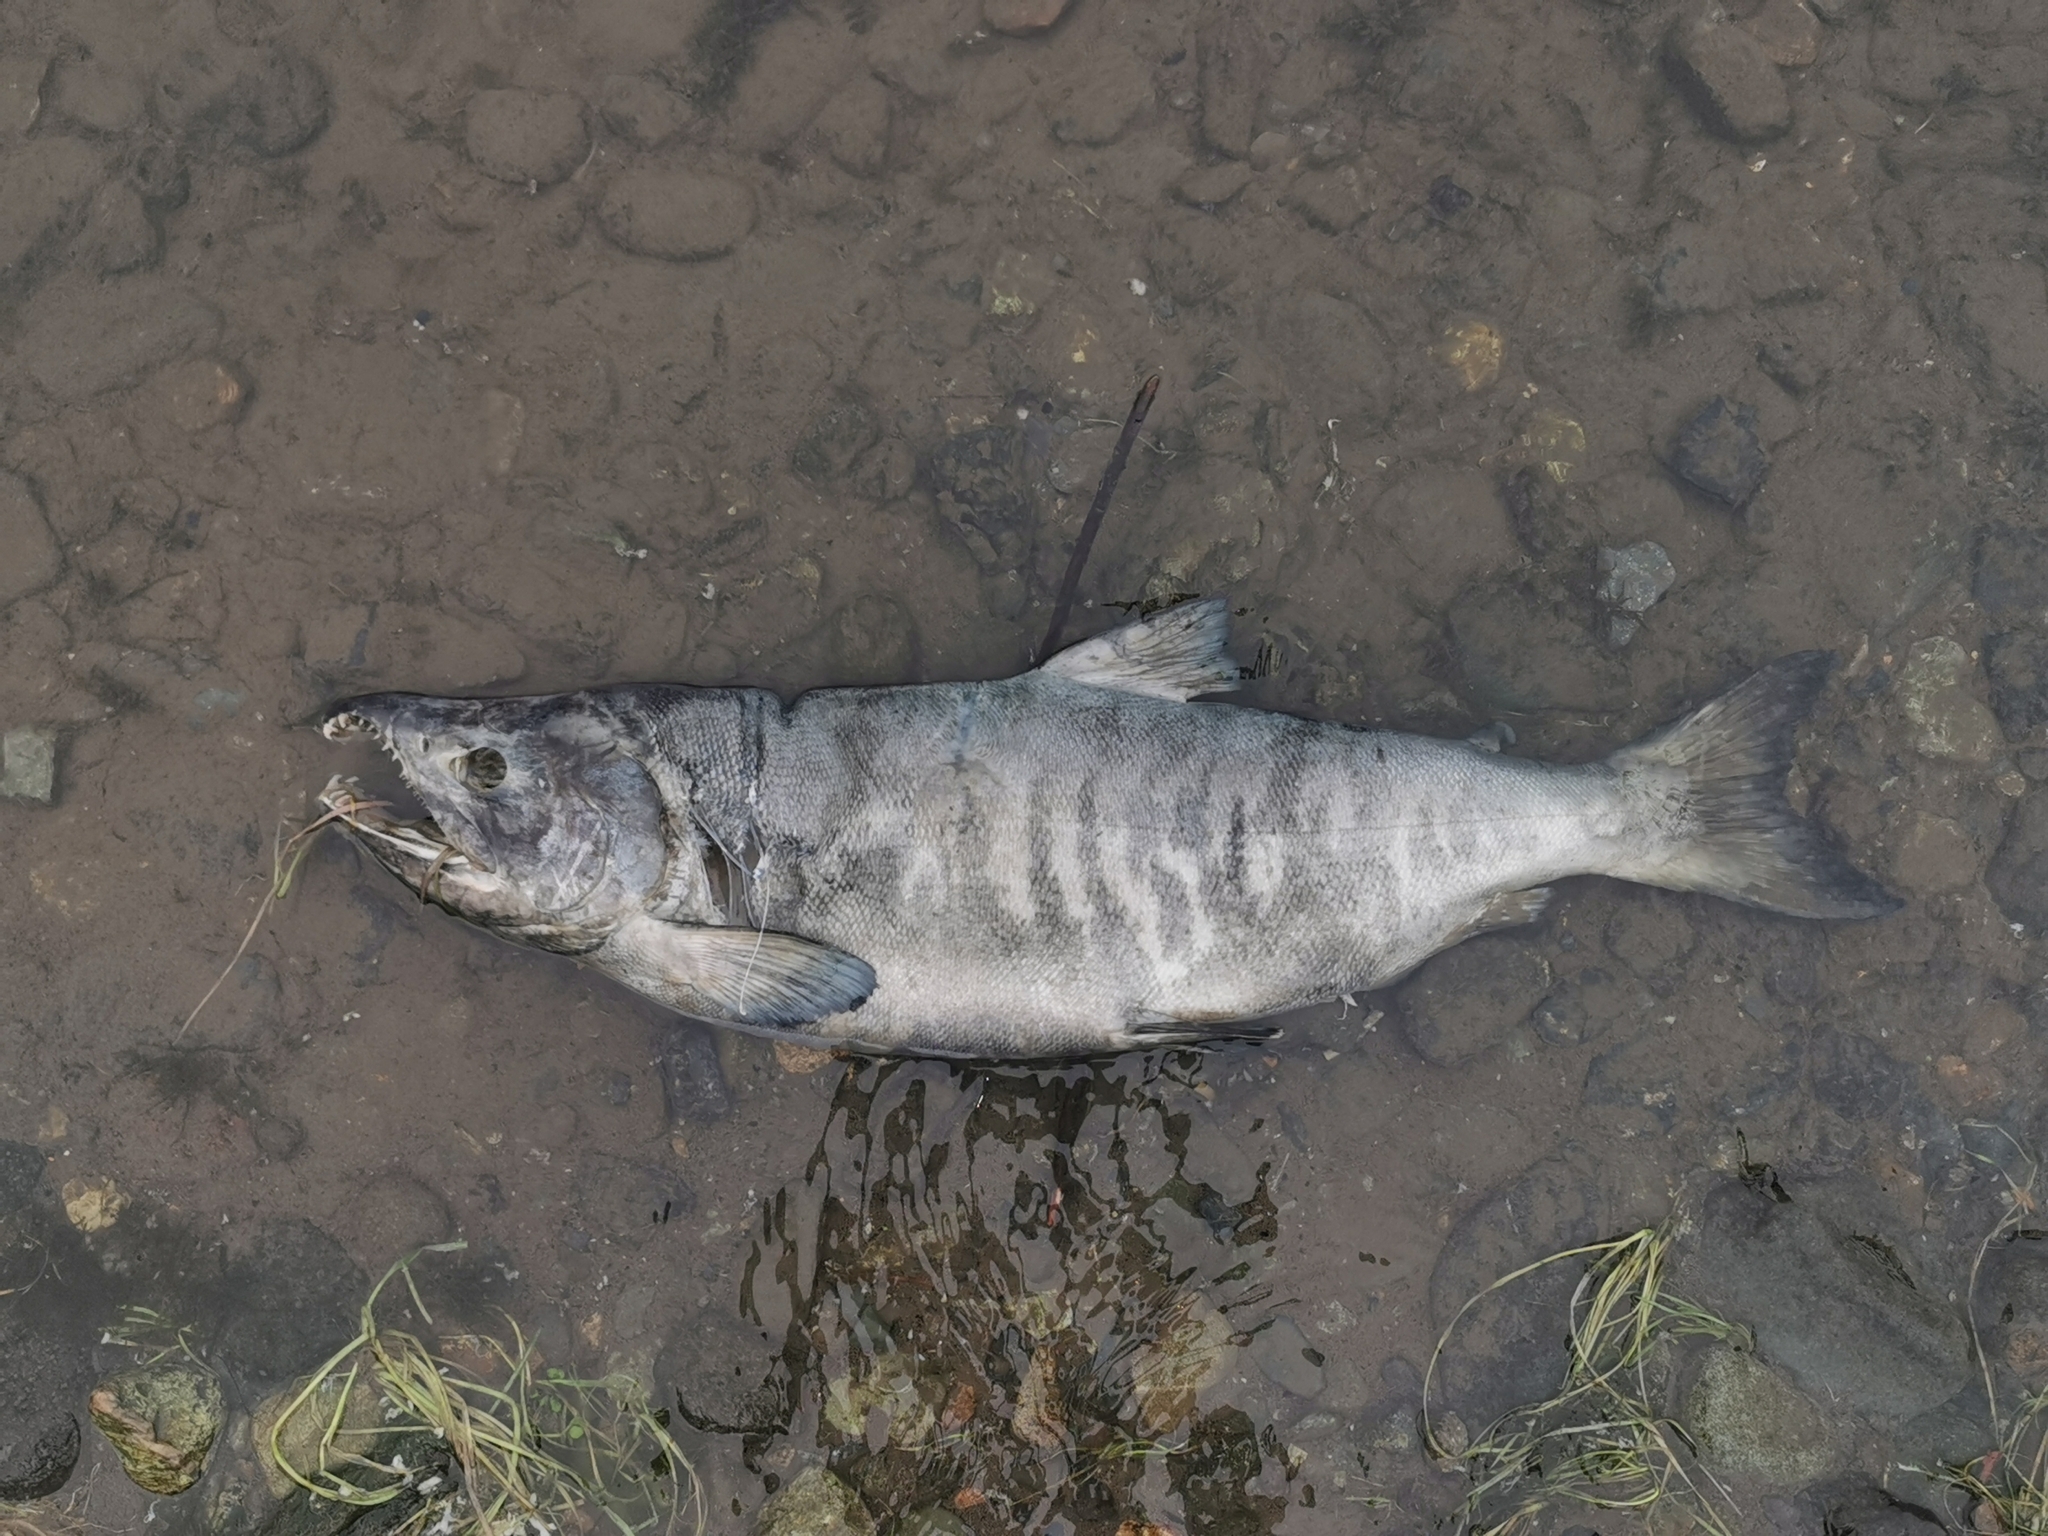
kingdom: Animalia
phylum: Chordata
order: Salmoniformes
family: Salmonidae
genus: Oncorhynchus
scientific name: Oncorhynchus keta
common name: Chum salmon
